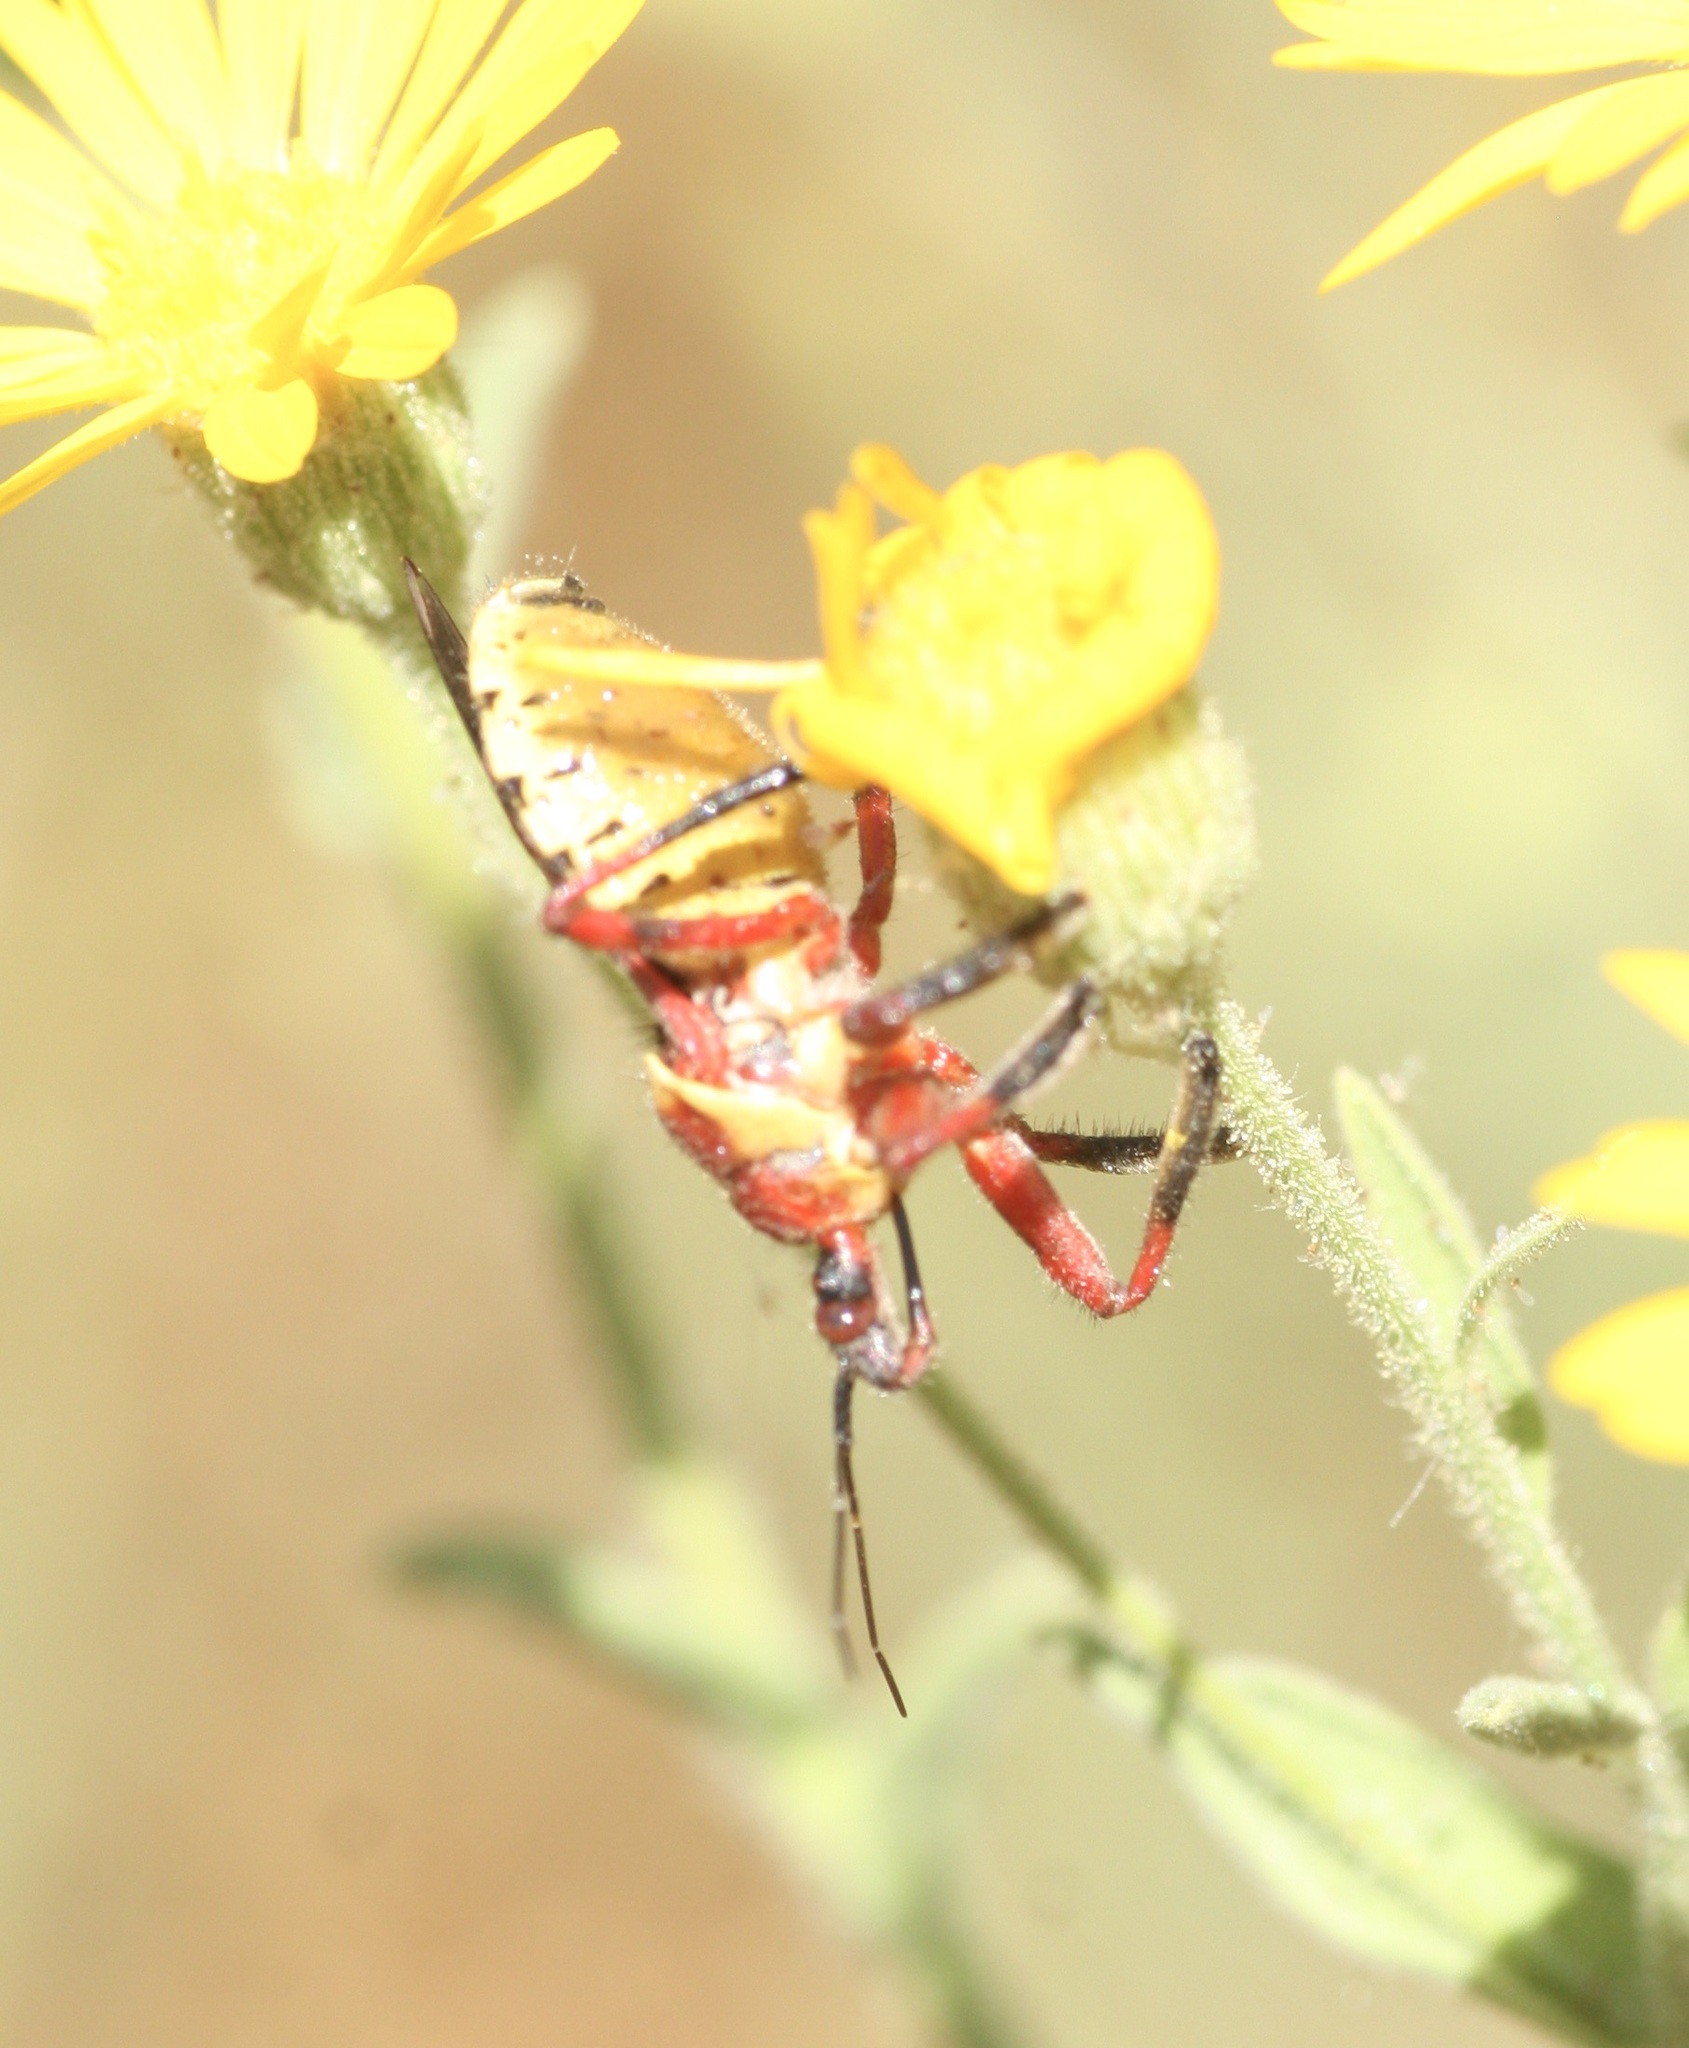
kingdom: Animalia
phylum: Arthropoda
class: Insecta
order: Hemiptera
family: Reduviidae
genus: Apiomerus
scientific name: Apiomerus flaviventris
